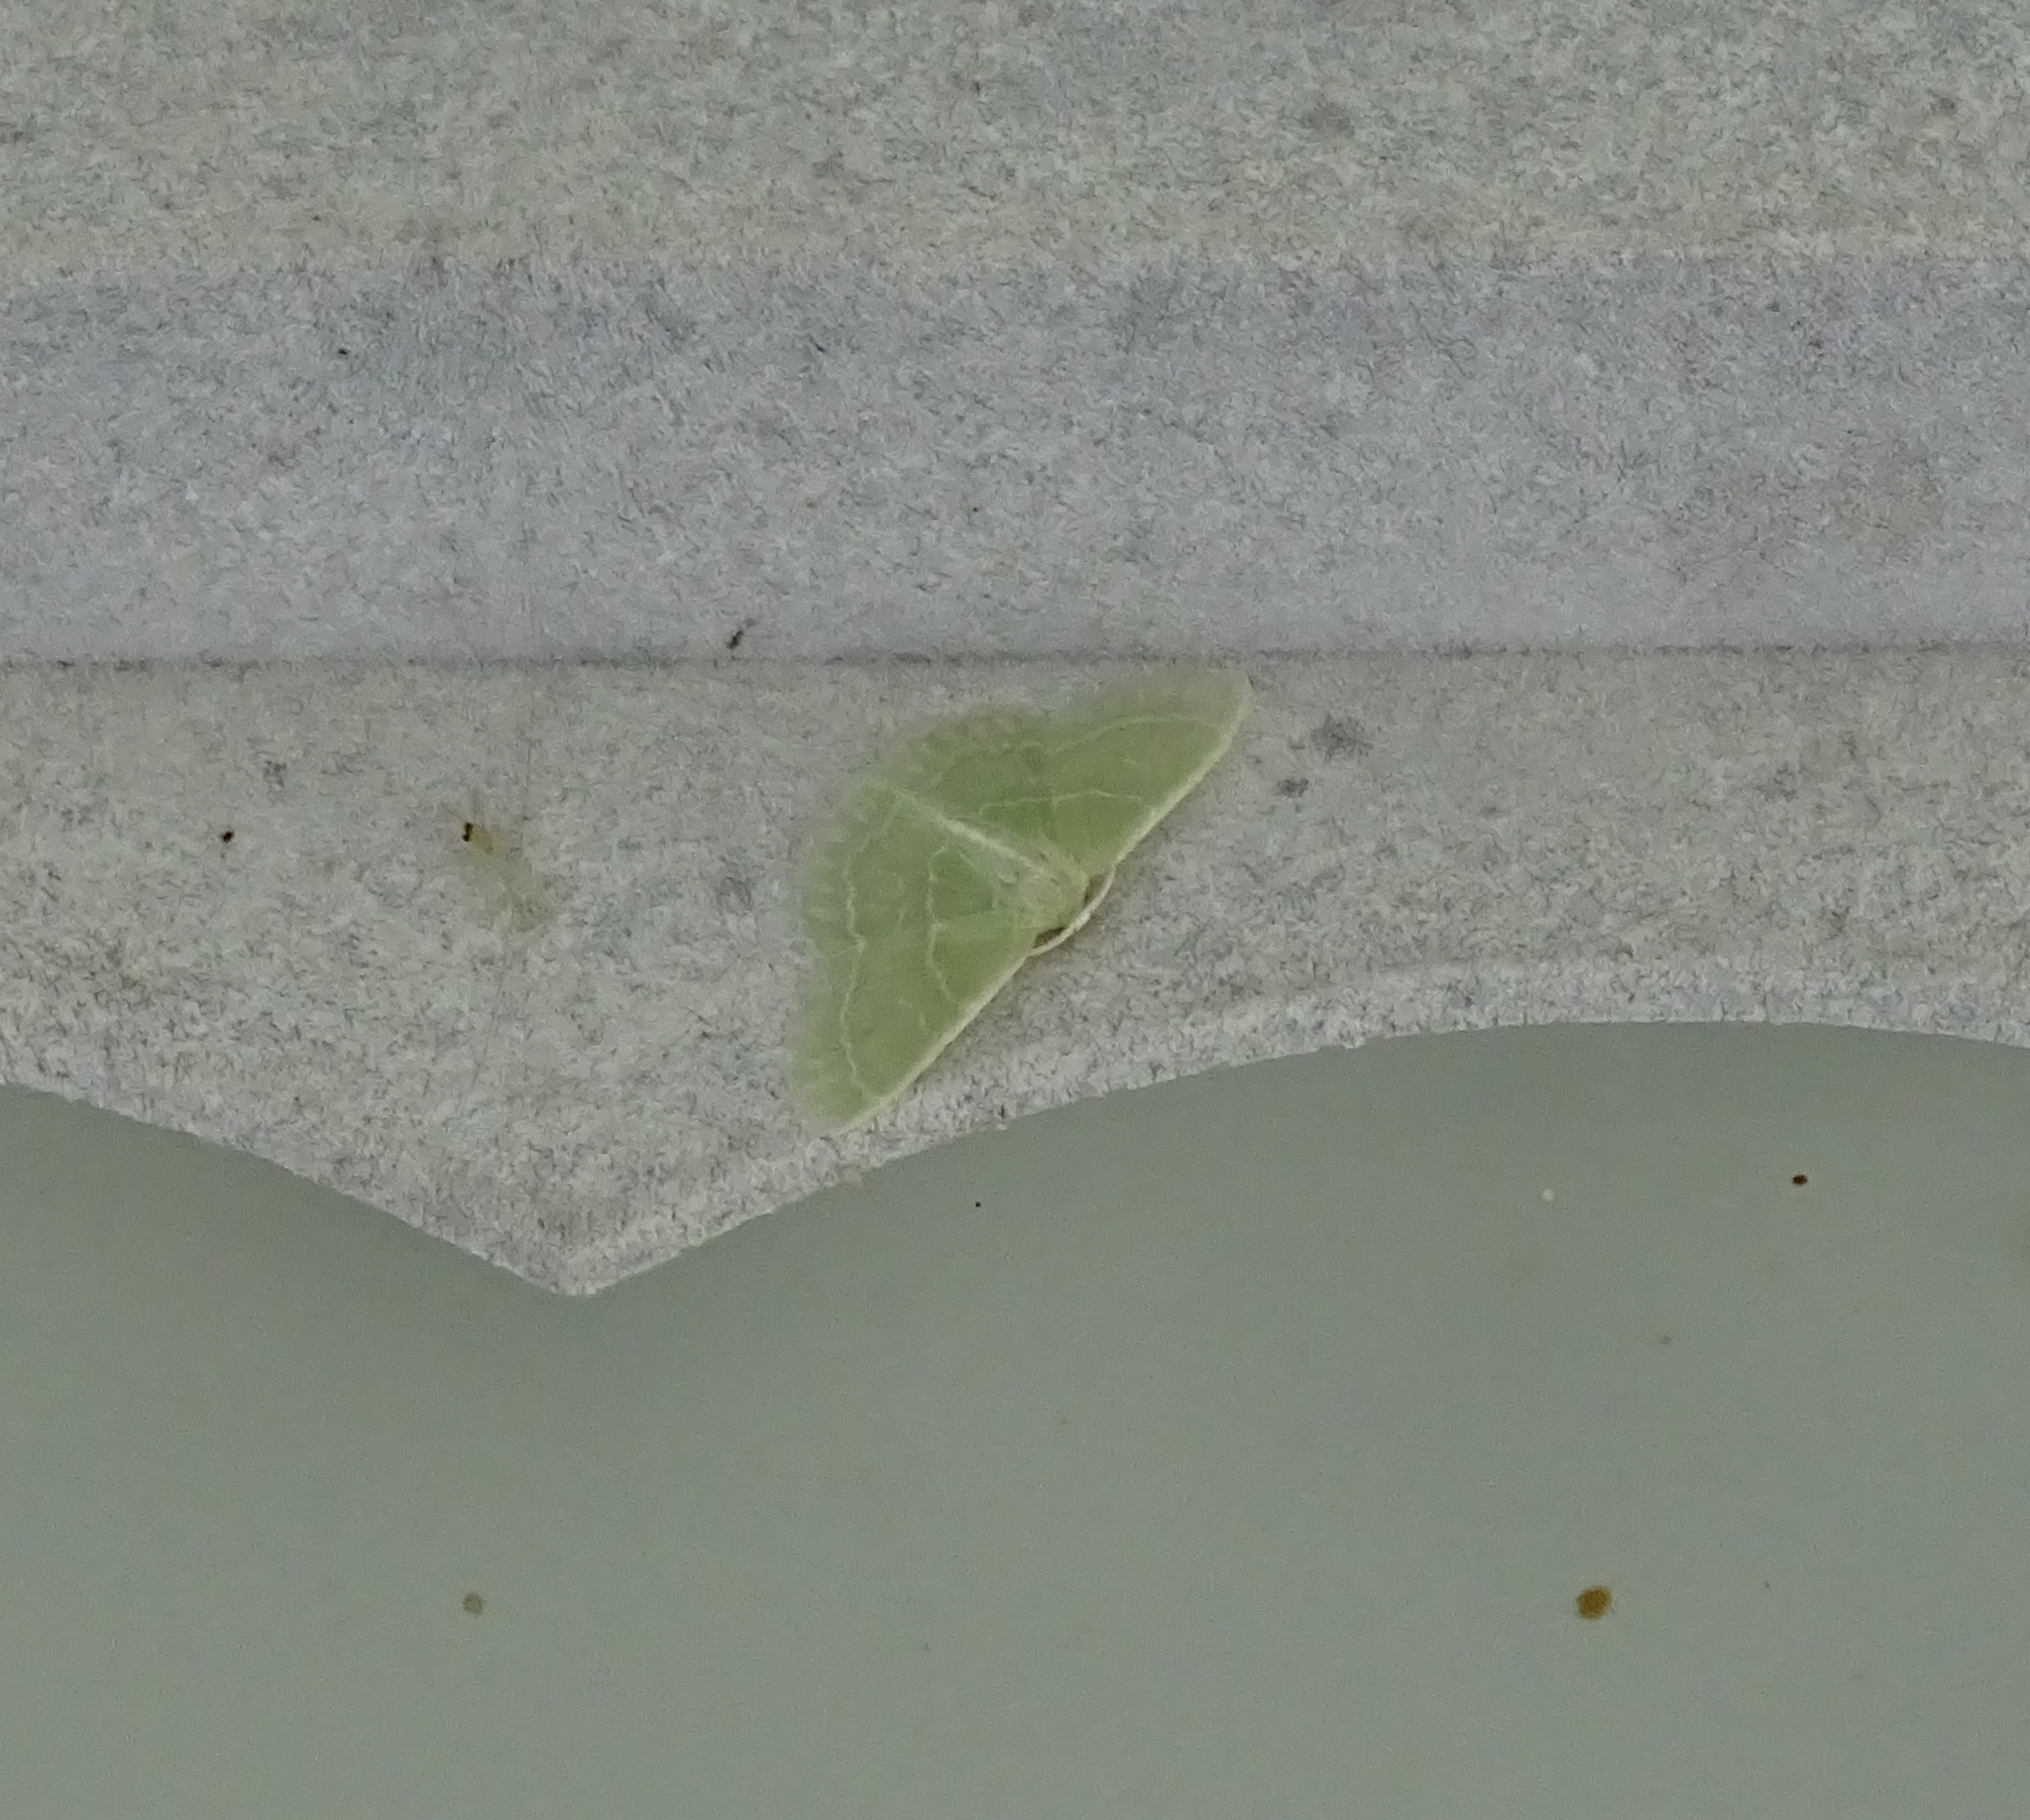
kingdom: Animalia
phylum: Arthropoda
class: Insecta
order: Lepidoptera
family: Geometridae
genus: Synchlora
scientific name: Synchlora aerata
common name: Wavy-lined emerald
